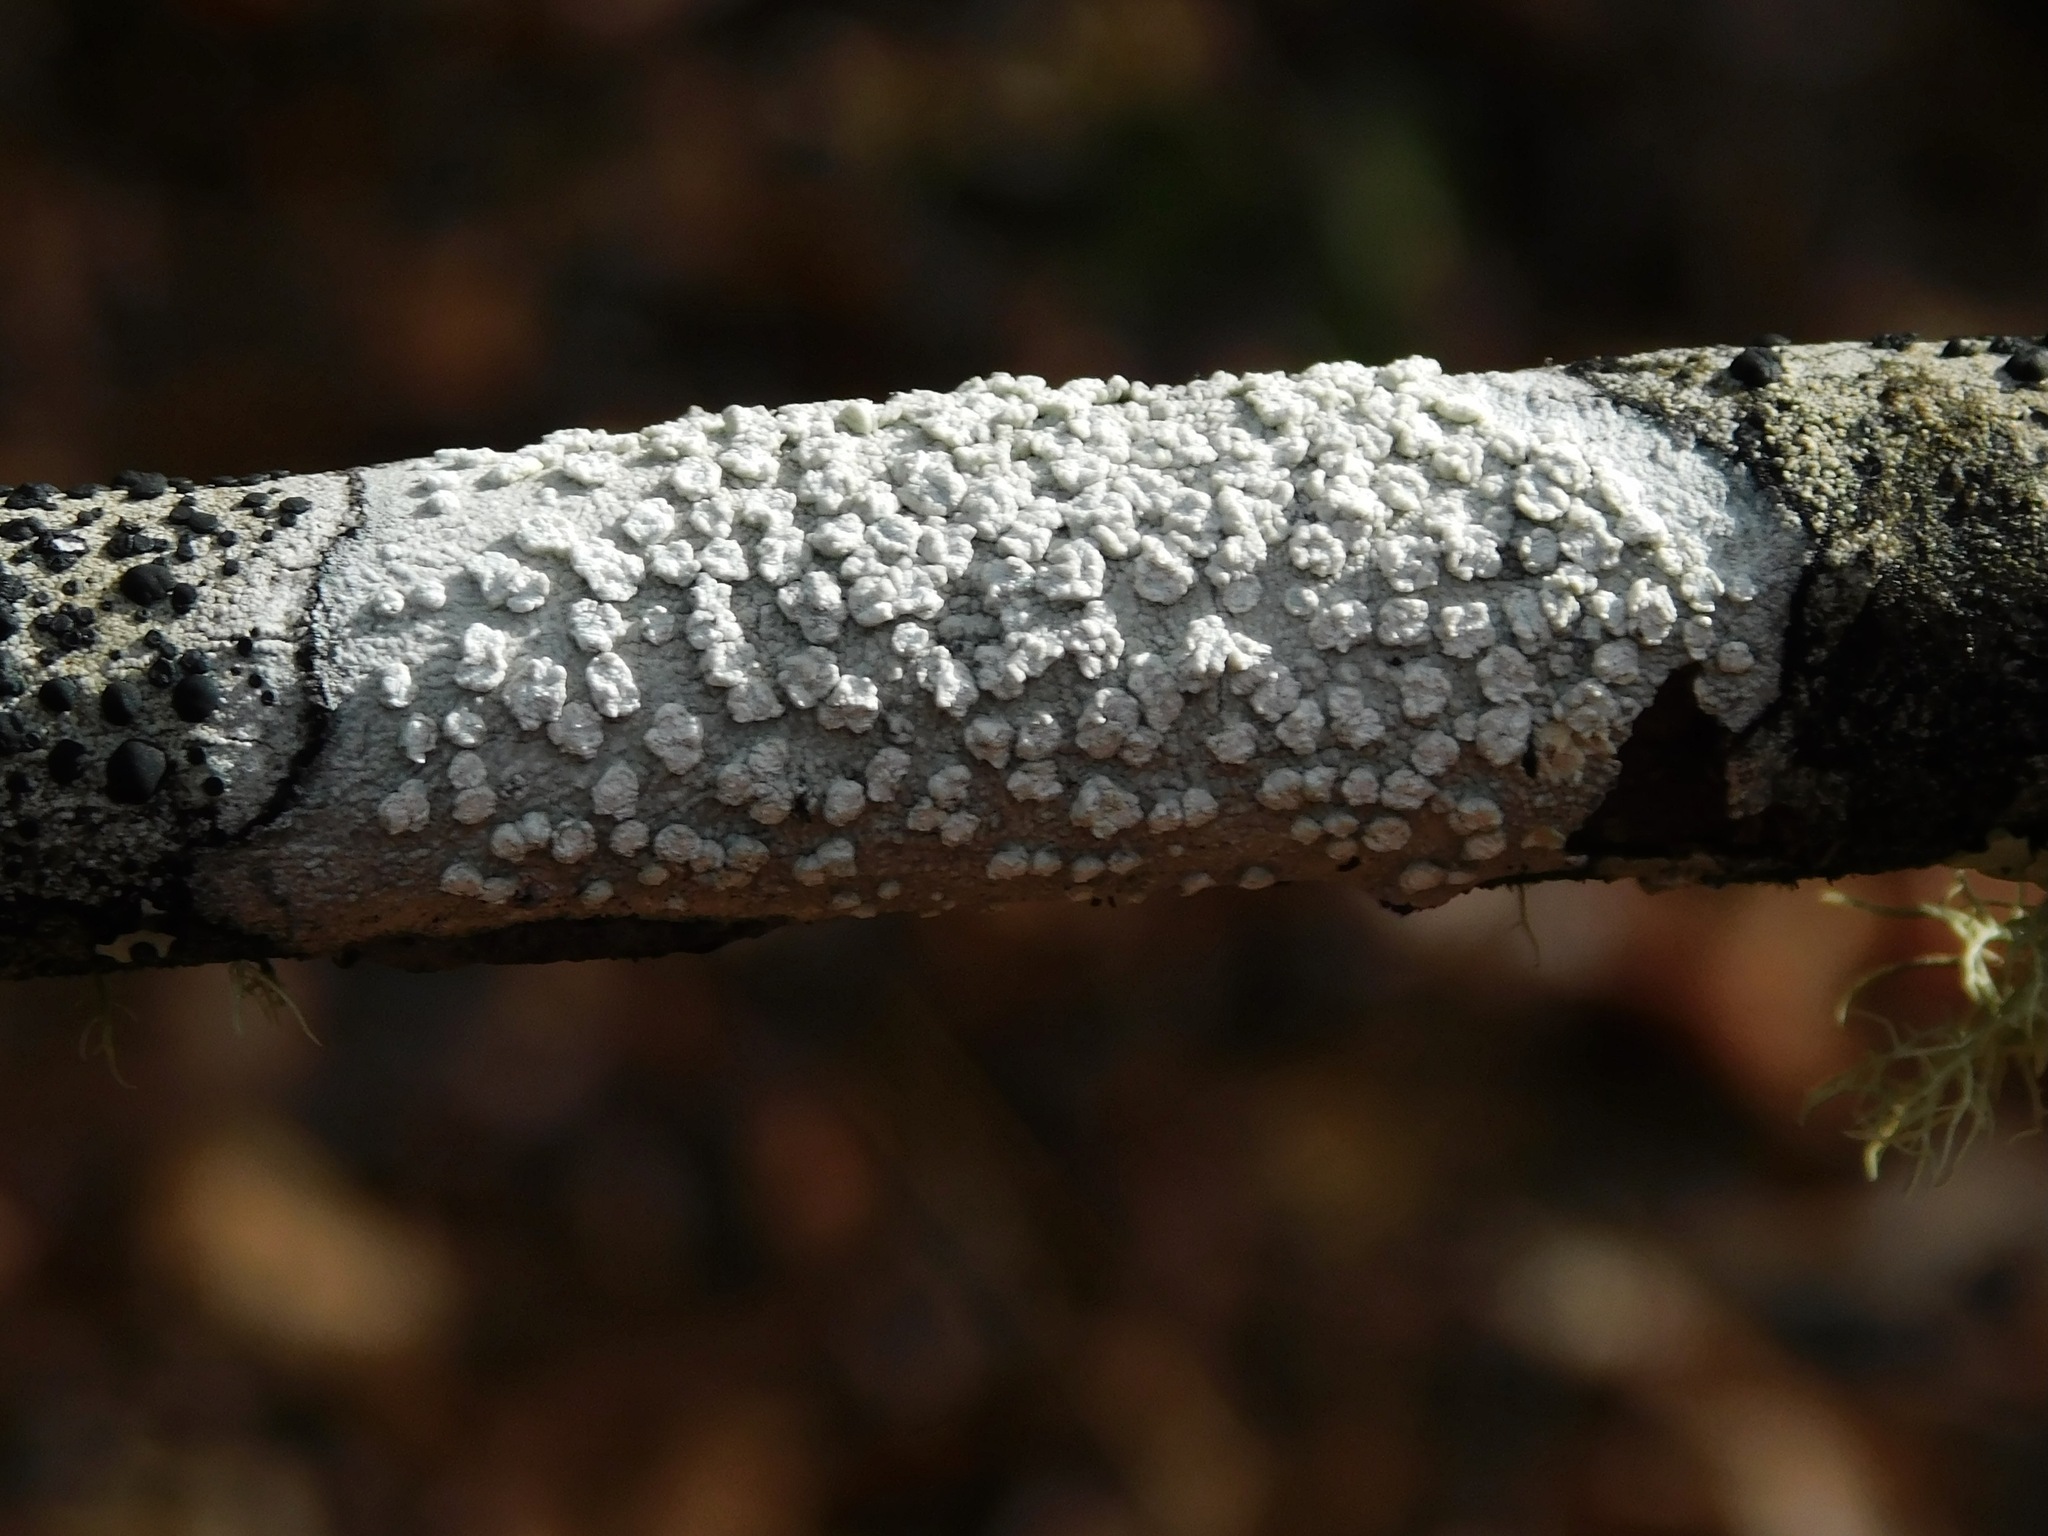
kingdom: Fungi
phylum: Ascomycota
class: Lecanoromycetes
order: Pertusariales
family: Pertusariaceae
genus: Lepra
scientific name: Lepra multipunctoides
